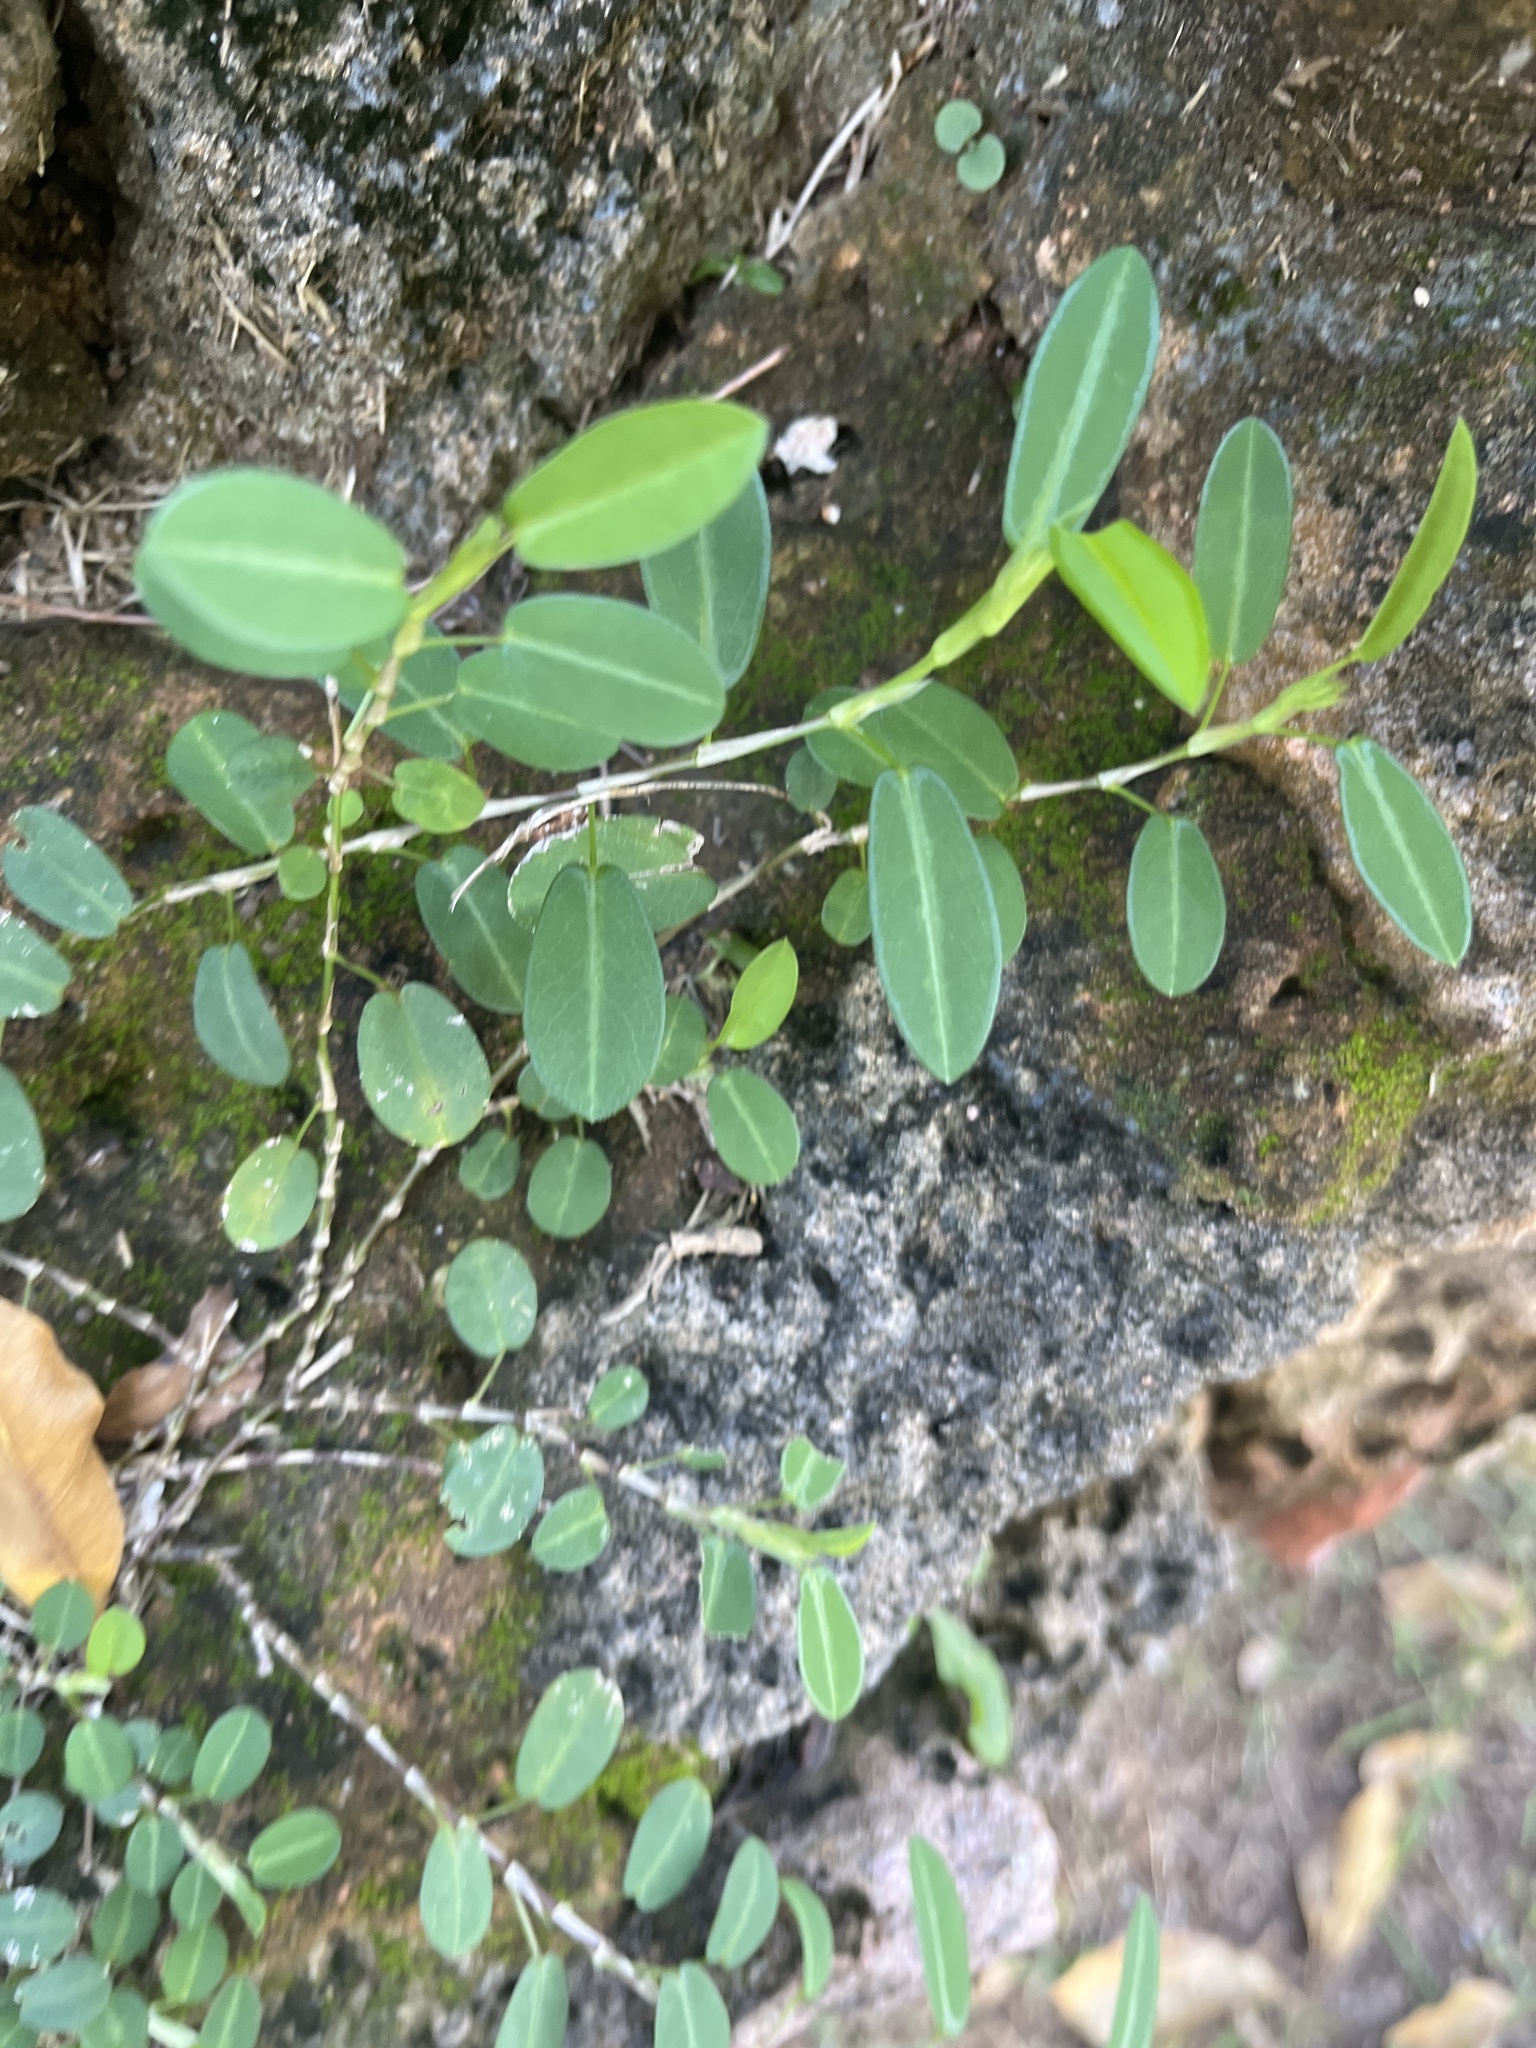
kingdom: Plantae
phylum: Tracheophyta
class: Magnoliopsida
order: Fabales
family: Fabaceae
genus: Alysicarpus
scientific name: Alysicarpus vaginalis
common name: White moneywort
